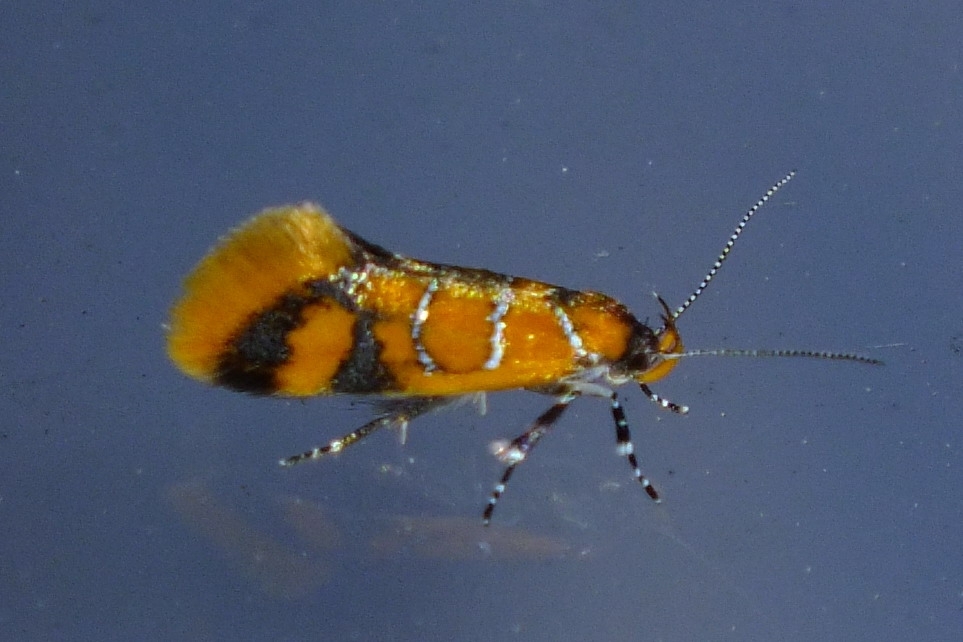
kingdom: Animalia
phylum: Arthropoda
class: Insecta
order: Lepidoptera
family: Oecophoridae
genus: Schiffermuelleria
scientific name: Schiffermuelleria procerella
